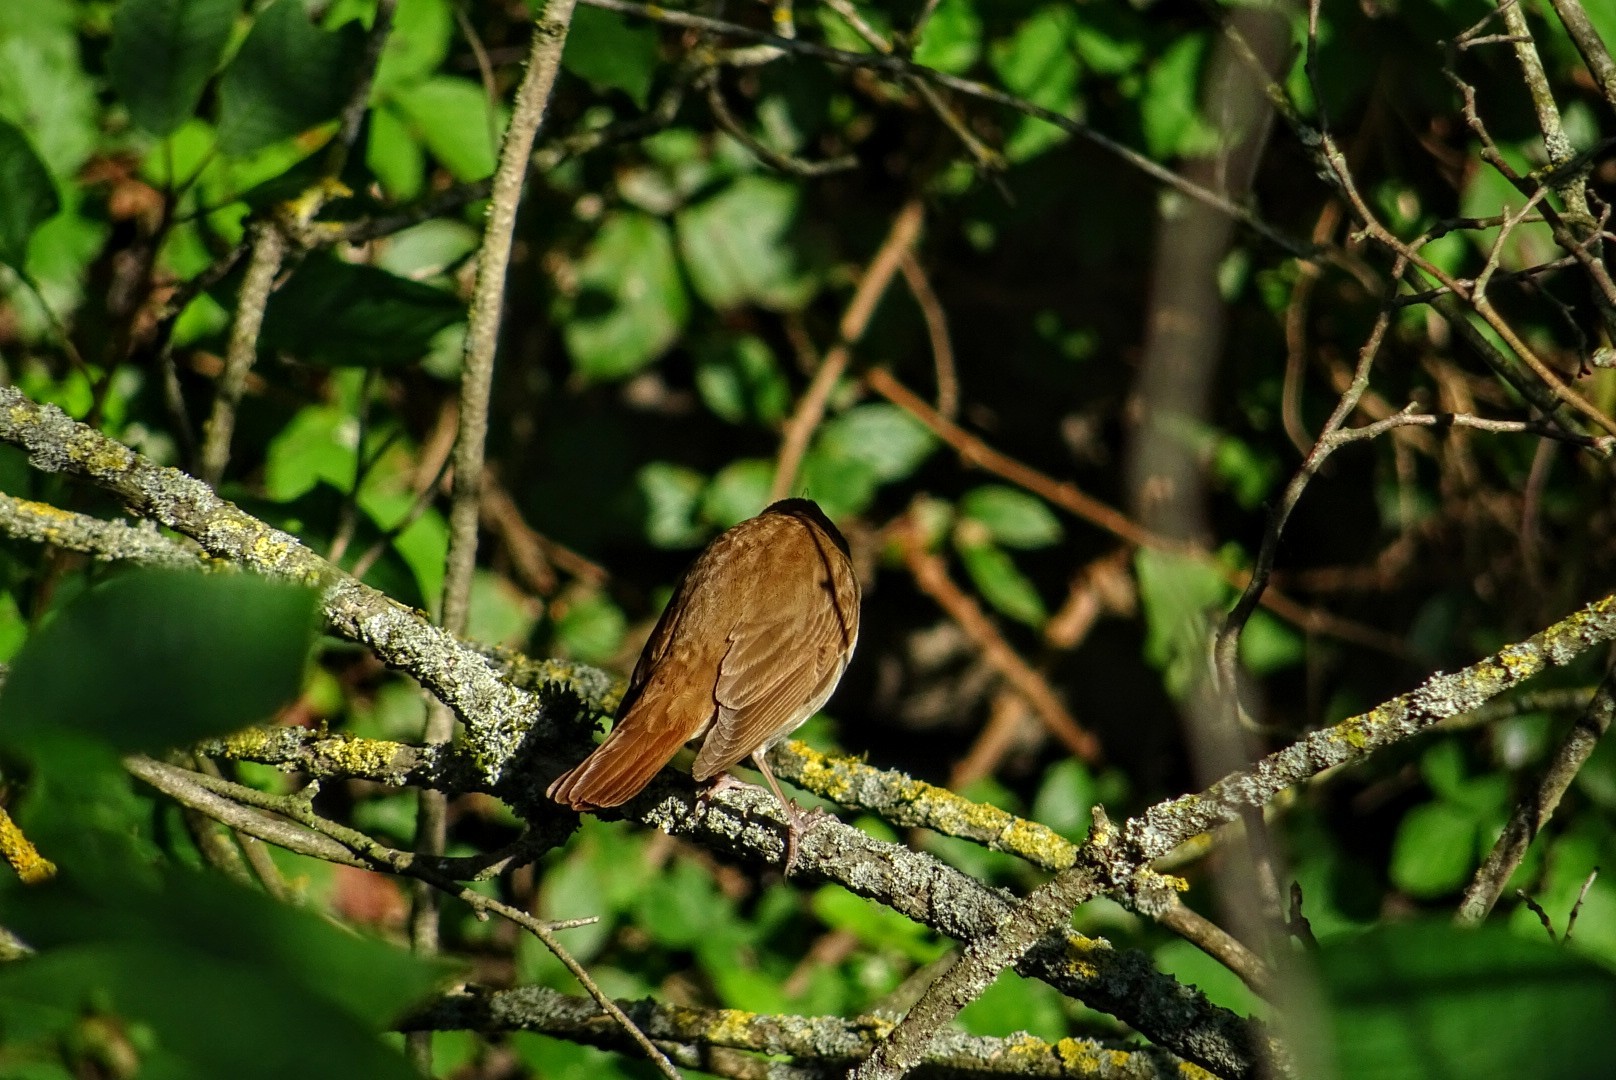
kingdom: Animalia
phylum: Chordata
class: Aves
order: Passeriformes
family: Muscicapidae
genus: Luscinia
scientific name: Luscinia megarhynchos
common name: Common nightingale
